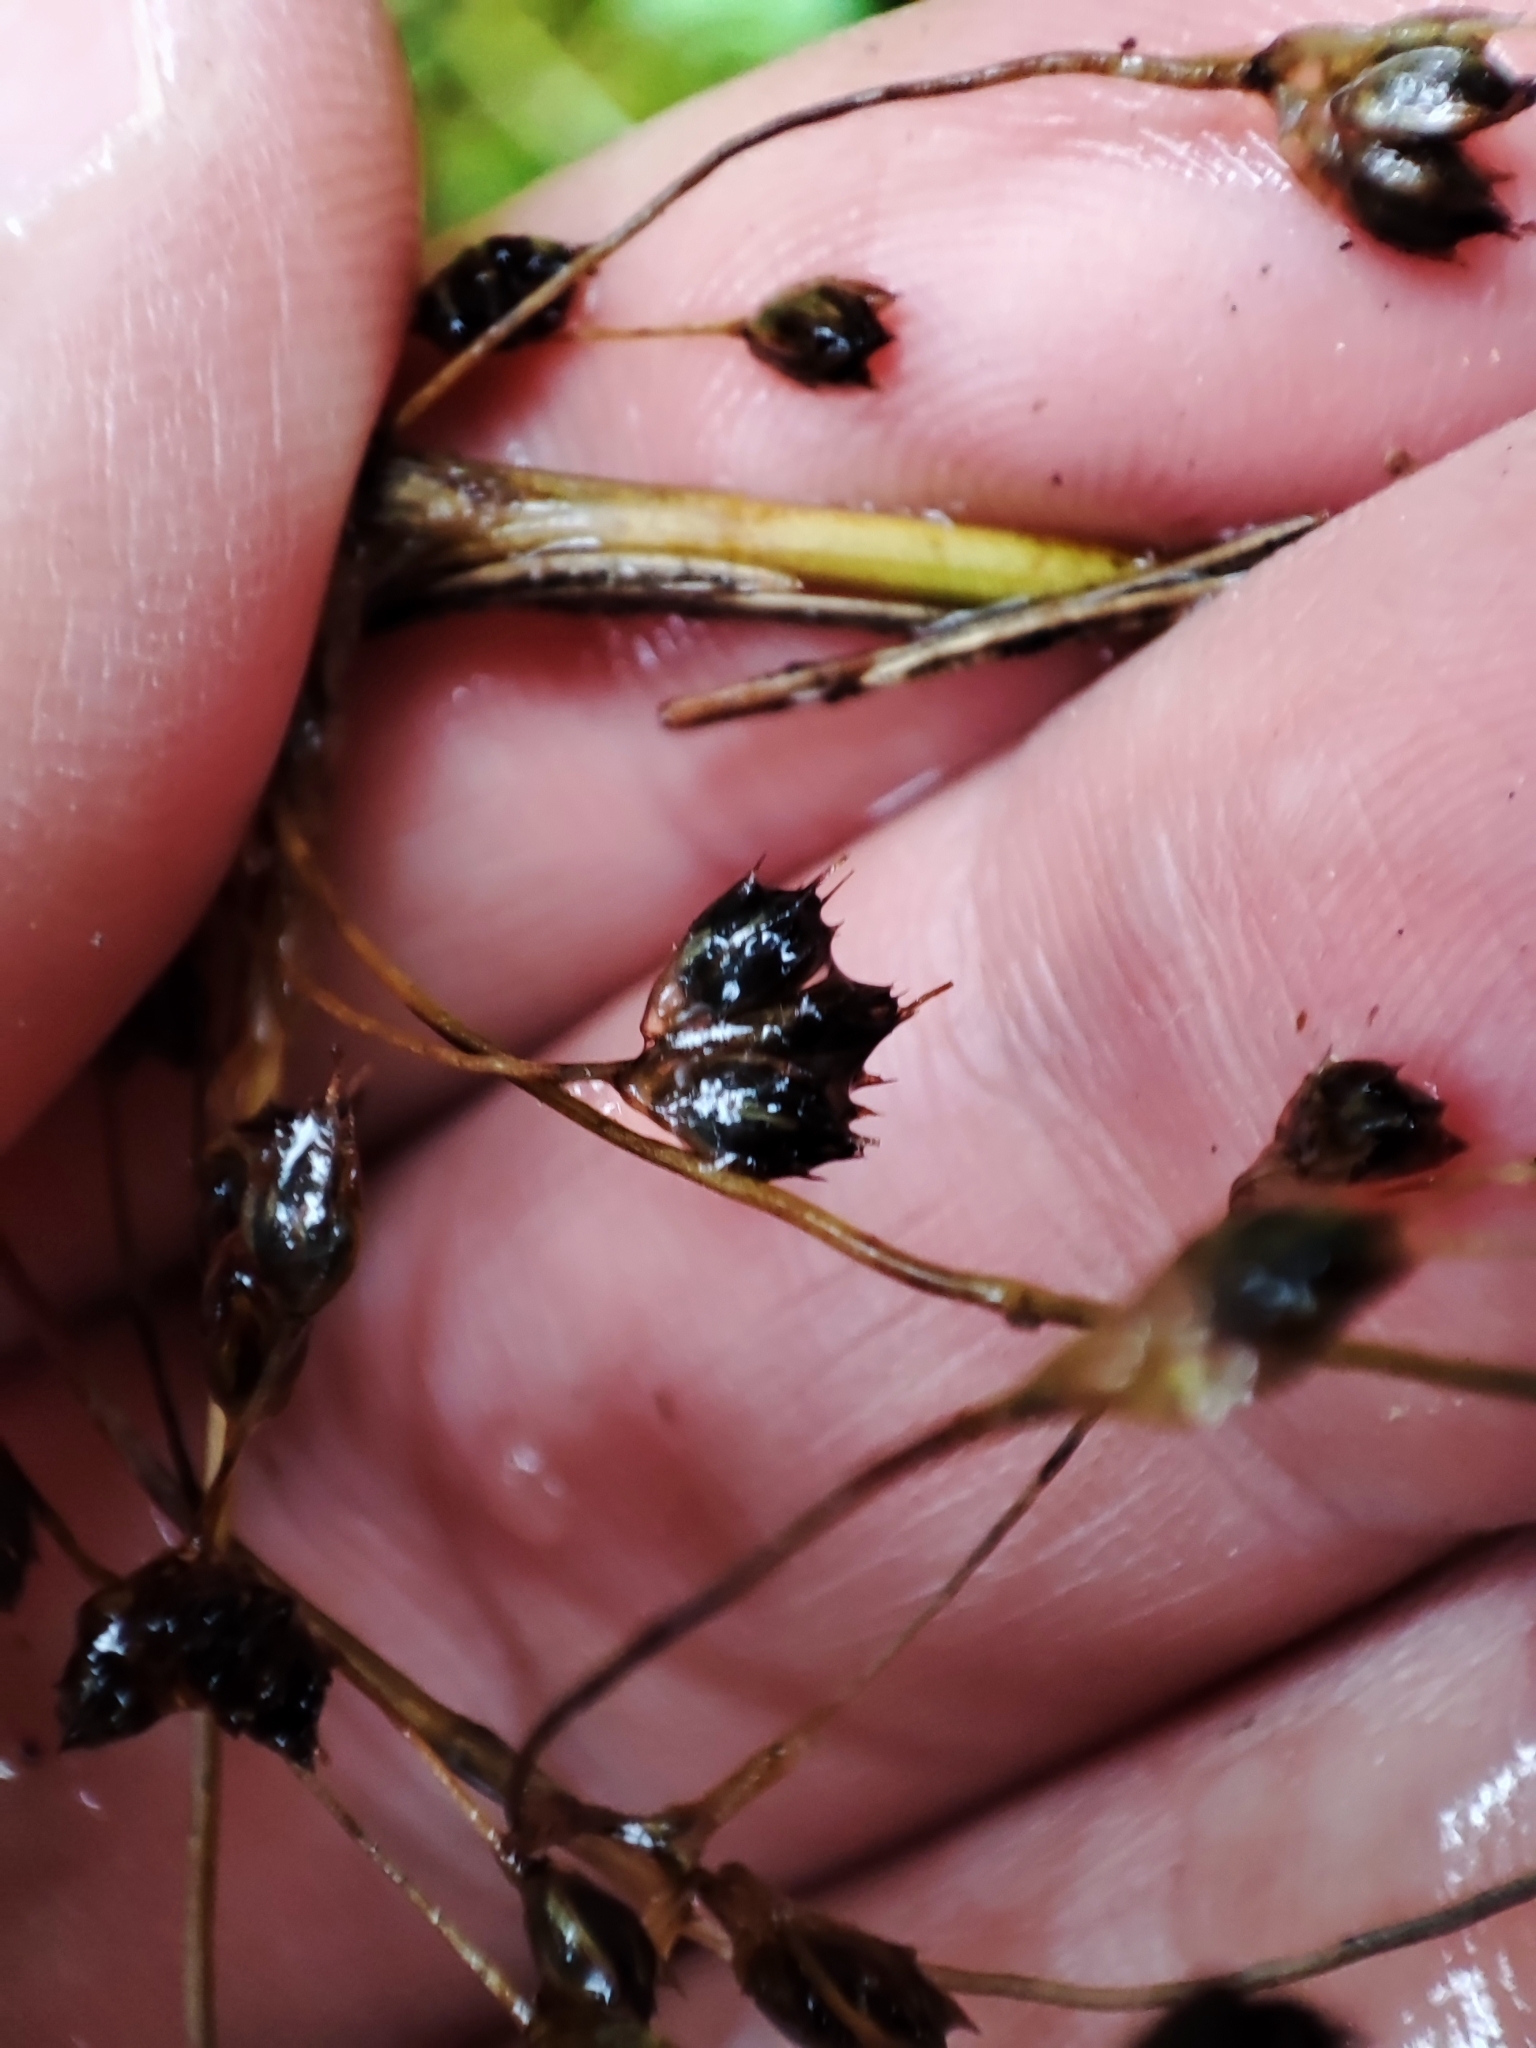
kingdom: Plantae
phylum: Tracheophyta
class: Liliopsida
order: Poales
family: Juncaceae
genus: Luzula
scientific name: Luzula sylvatica
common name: Great wood-rush
